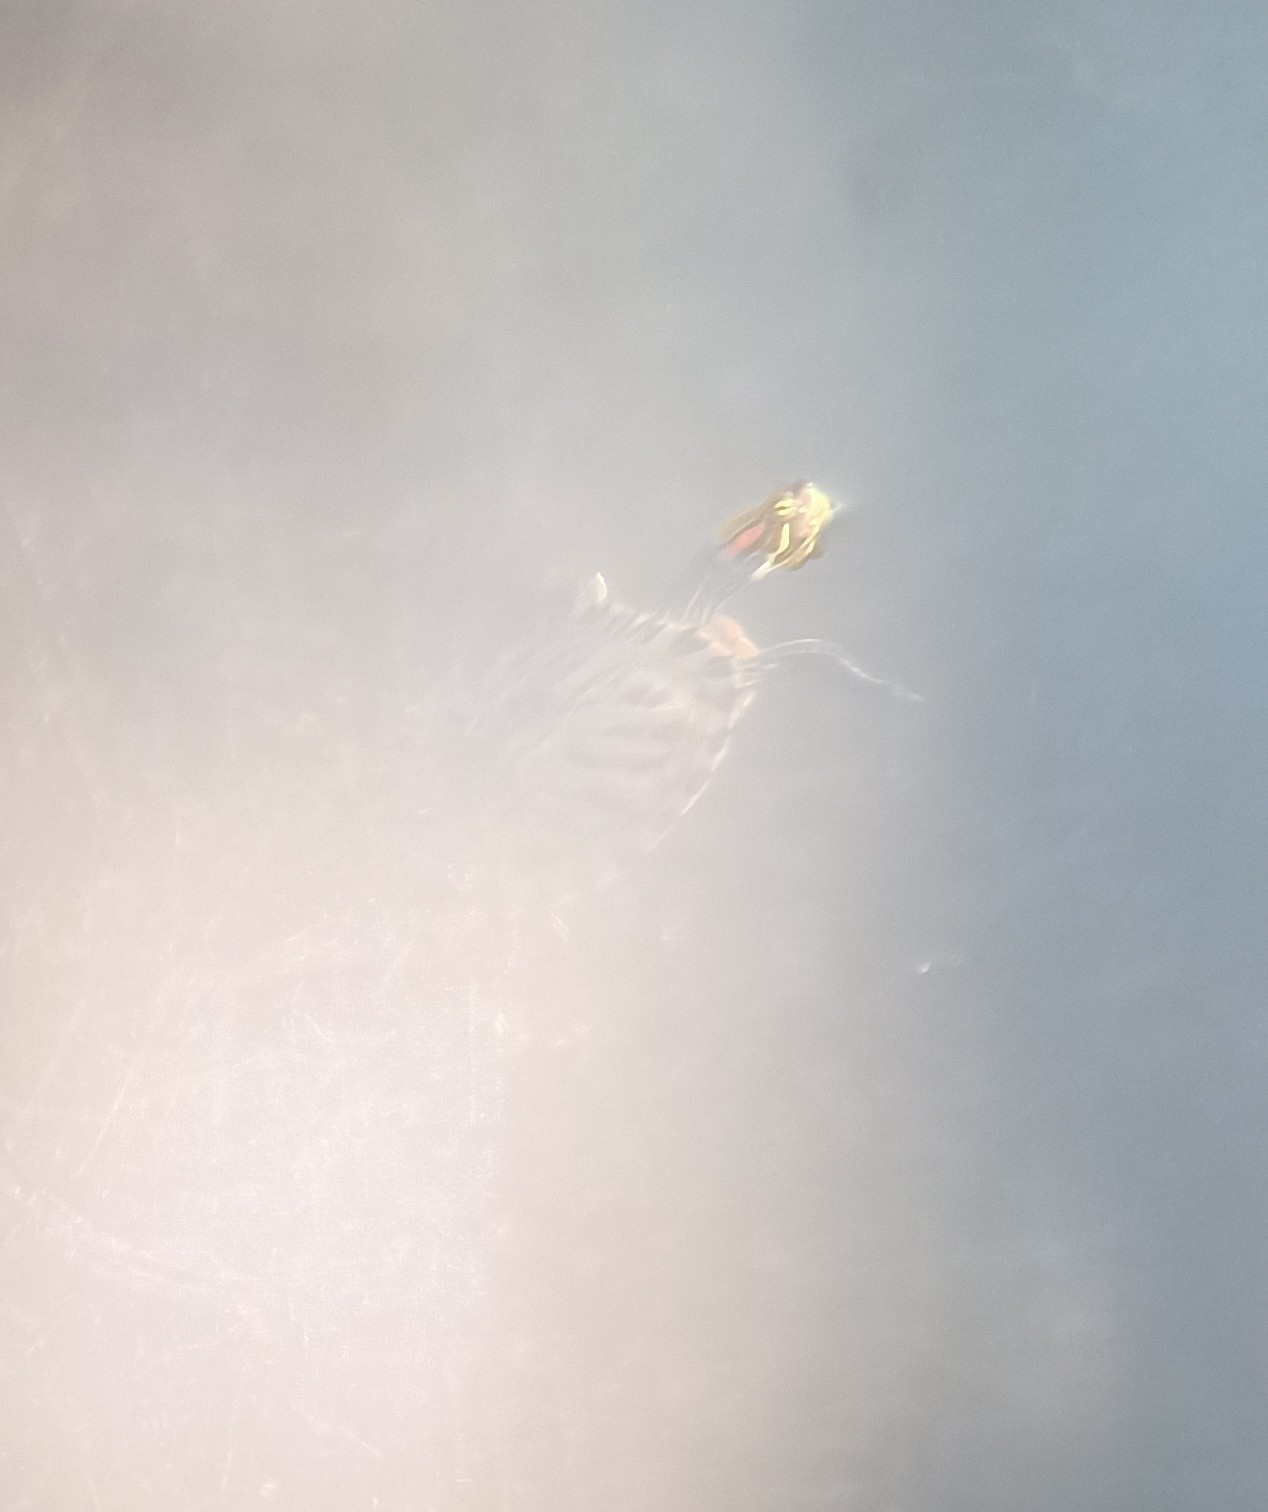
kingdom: Animalia
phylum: Chordata
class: Testudines
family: Emydidae
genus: Trachemys
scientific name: Trachemys scripta
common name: Slider
